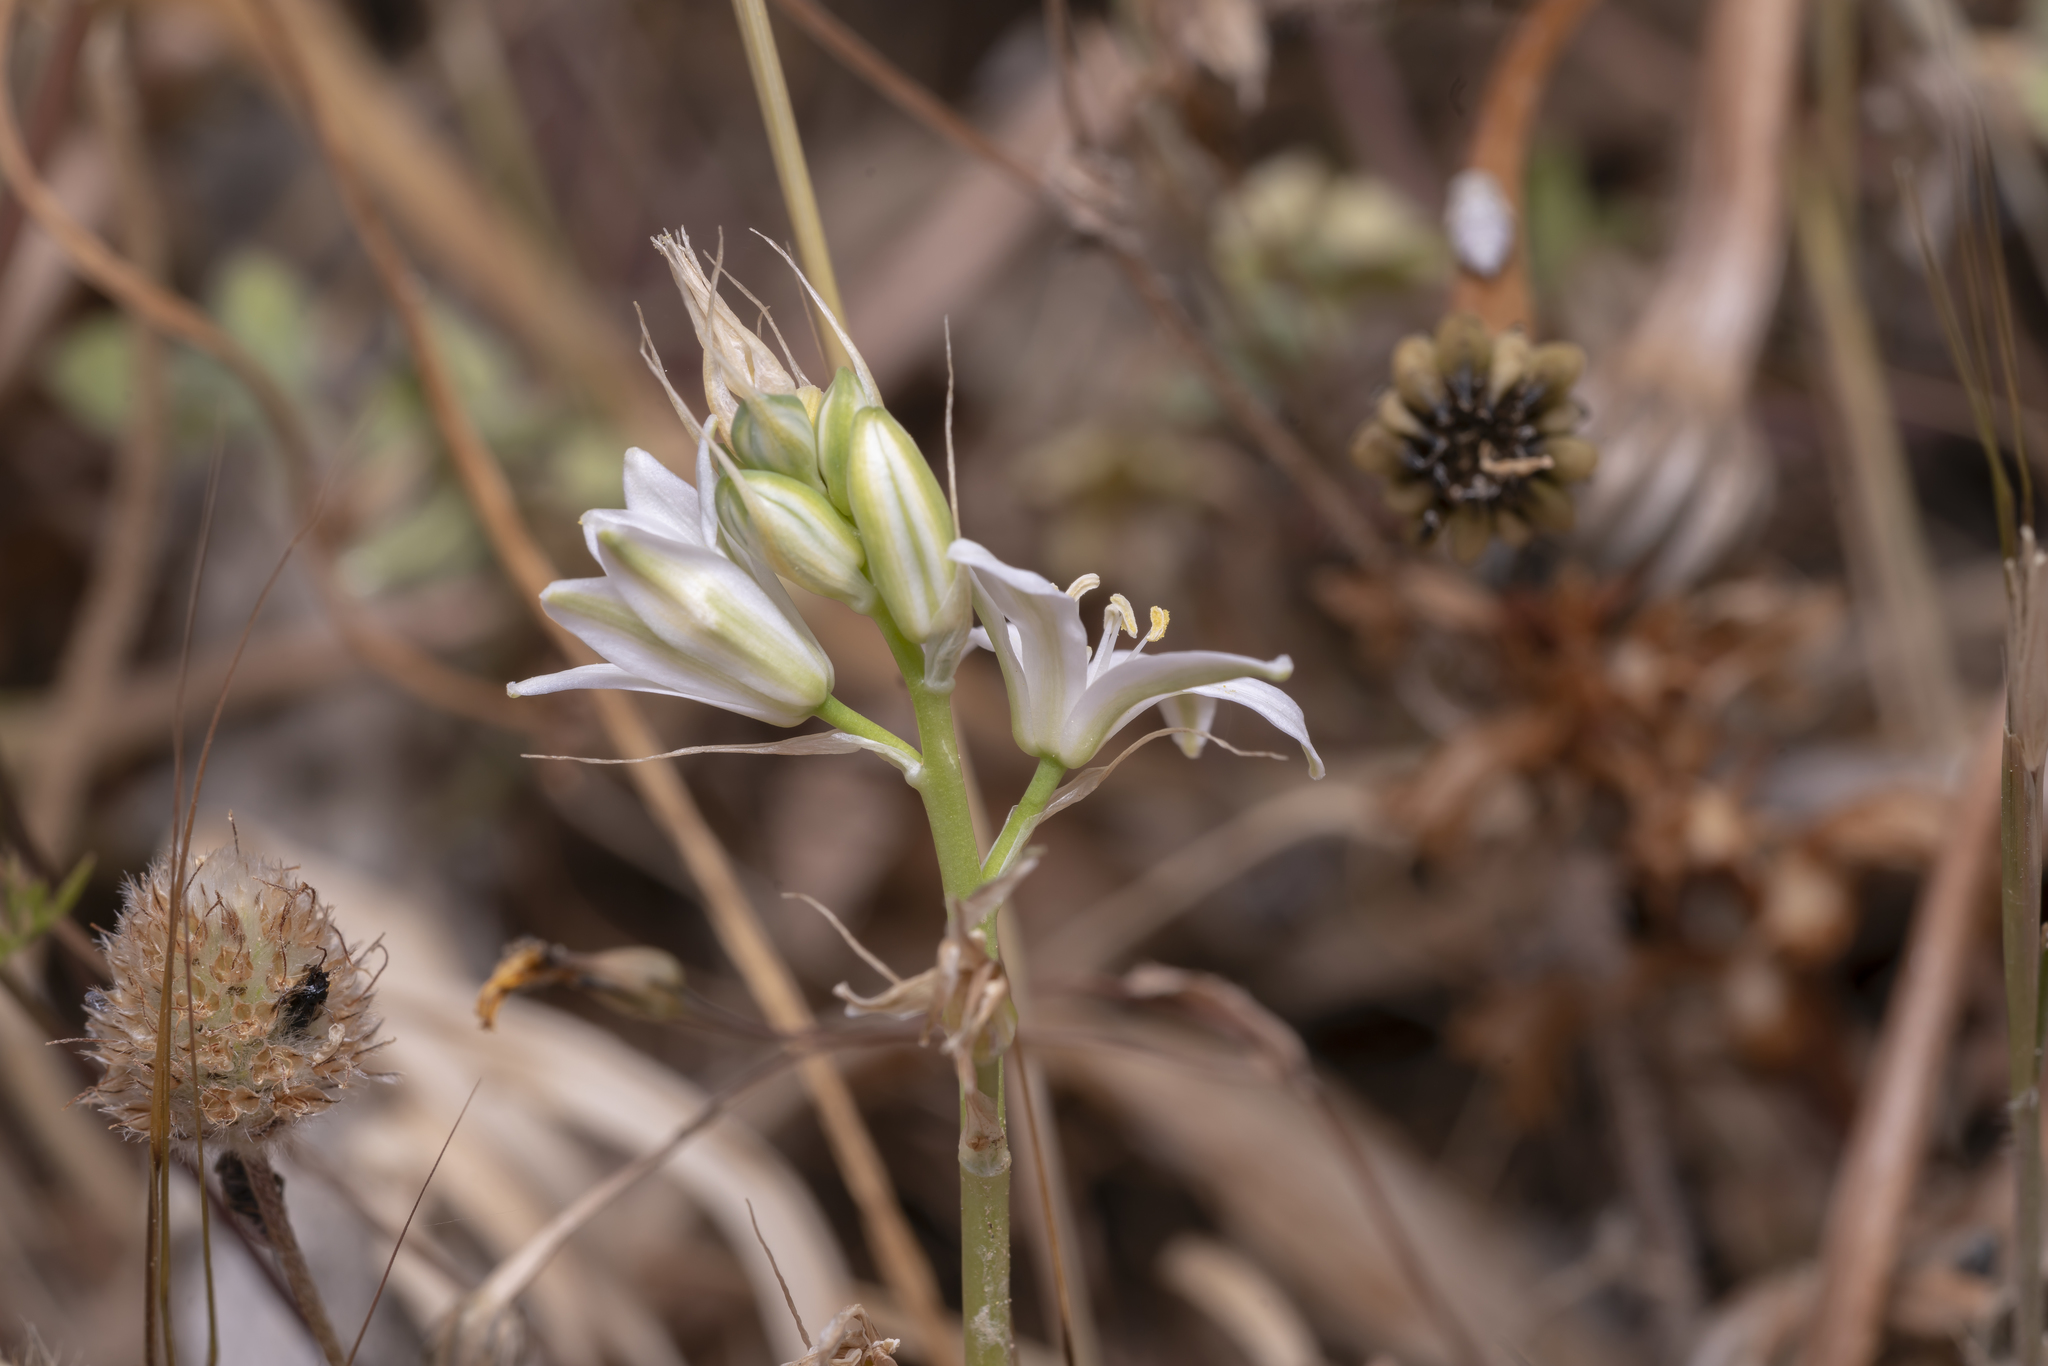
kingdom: Plantae
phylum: Tracheophyta
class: Liliopsida
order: Asparagales
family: Asparagaceae
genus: Ornithogalum
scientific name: Ornithogalum
